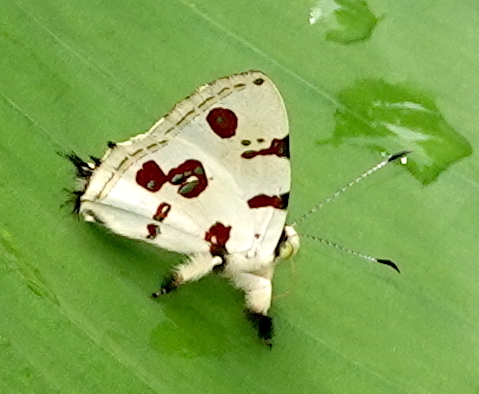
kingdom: Animalia
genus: Anteros
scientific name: Anteros formosus
